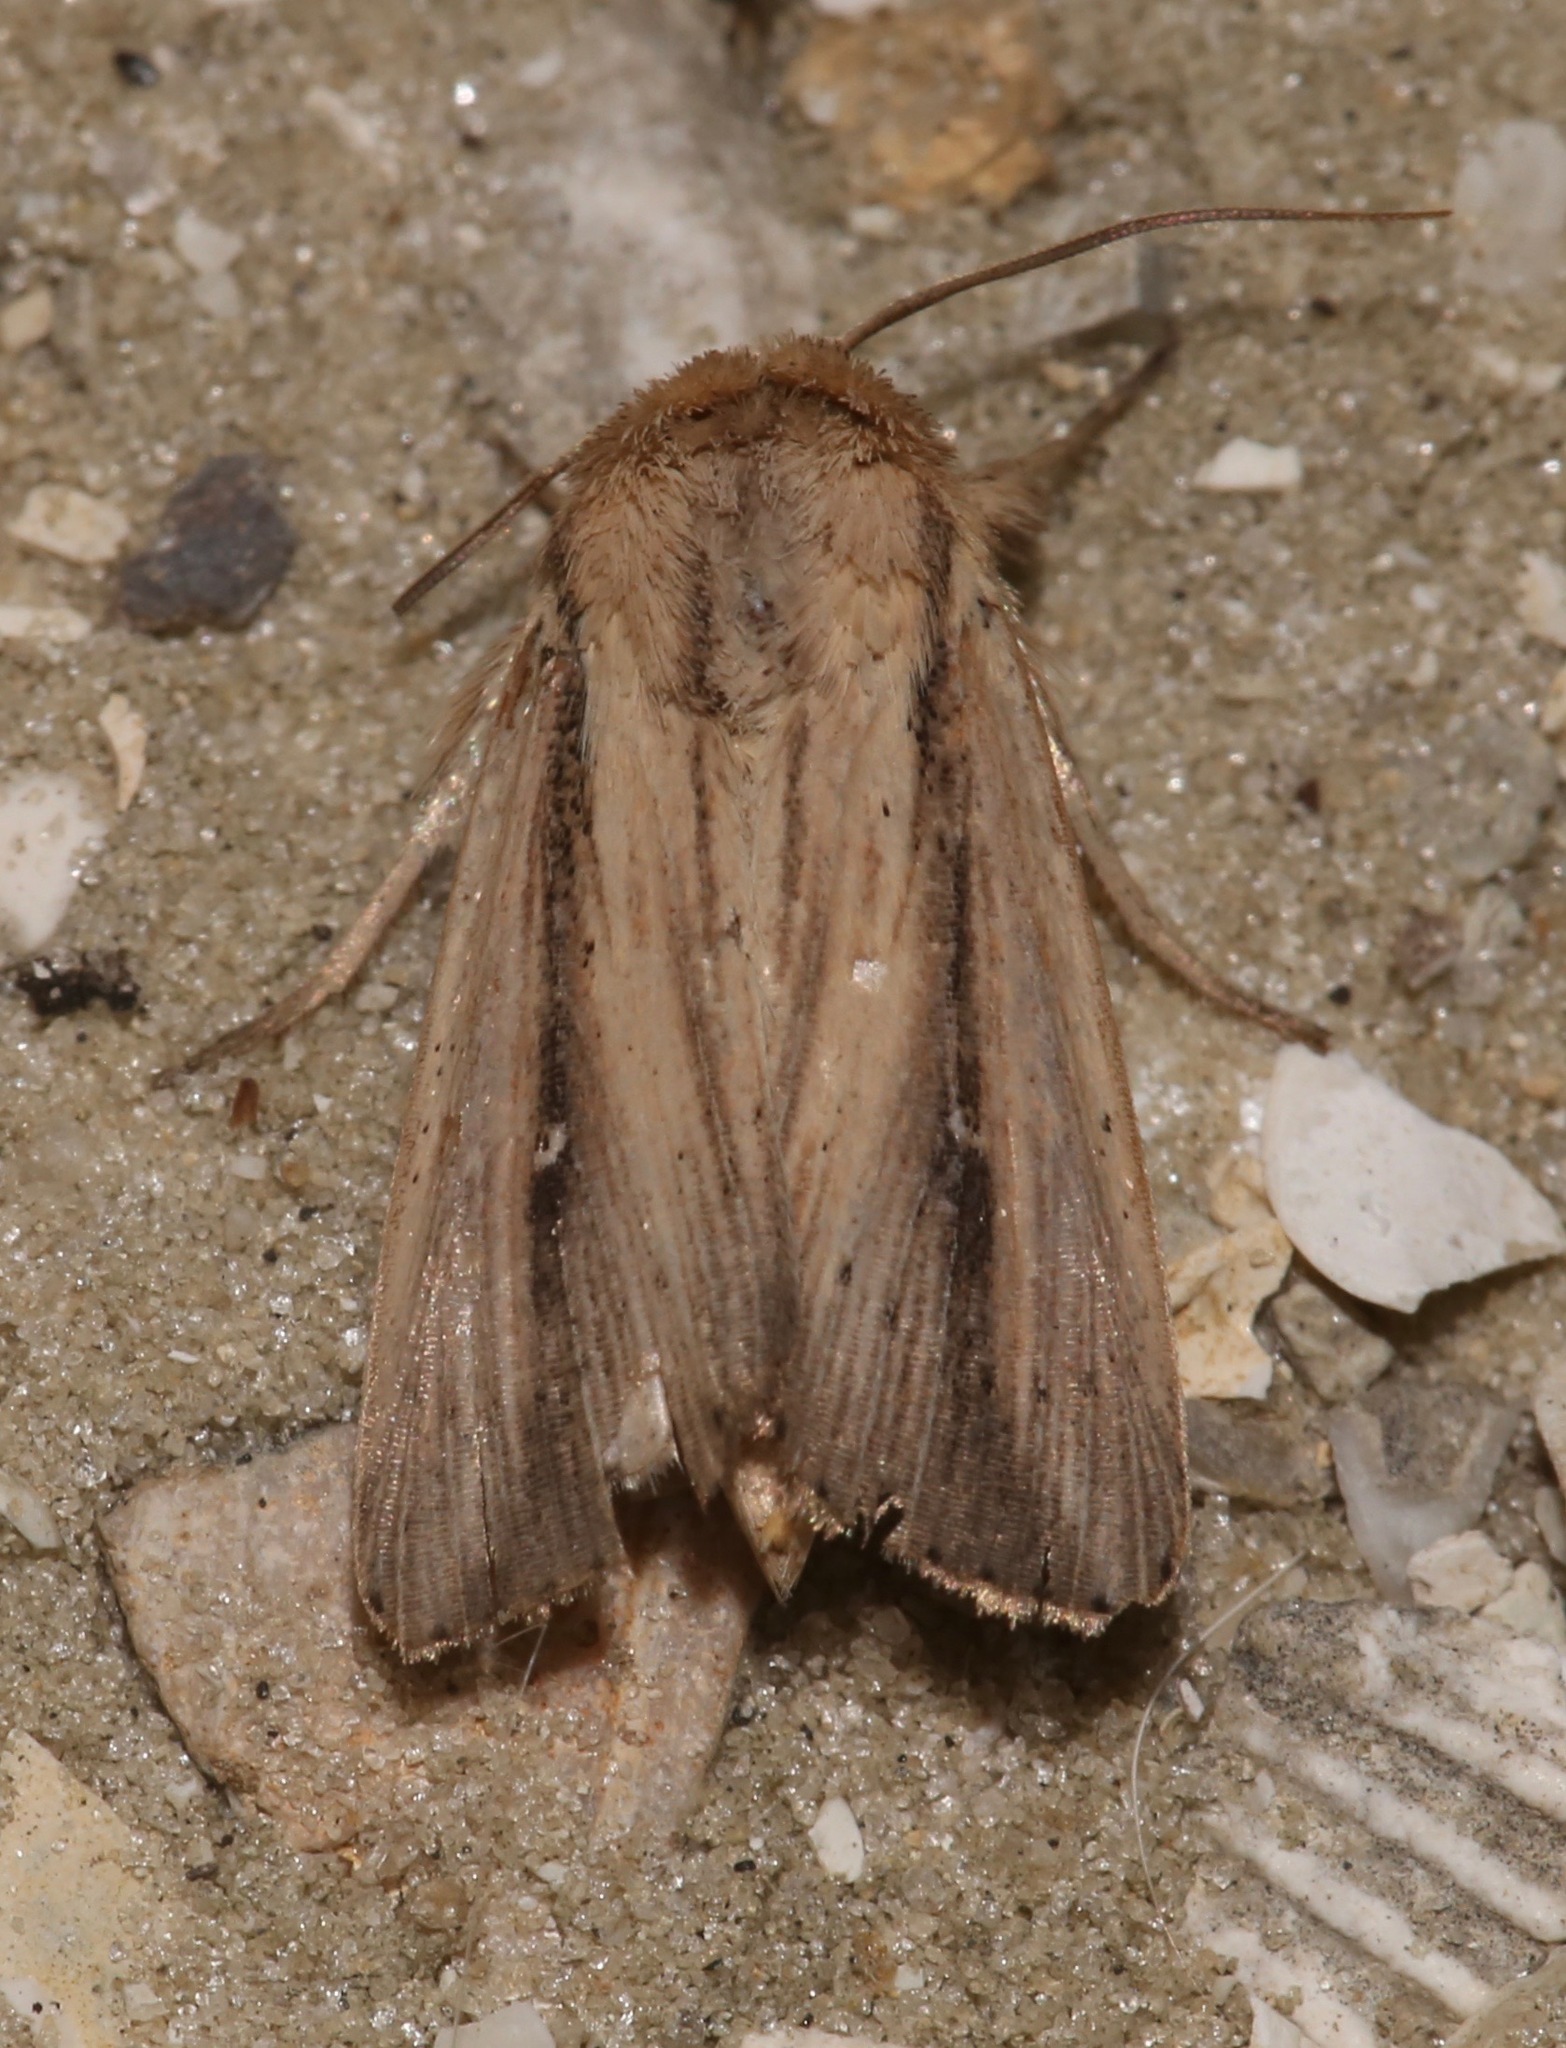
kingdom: Animalia
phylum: Arthropoda
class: Insecta
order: Lepidoptera
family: Noctuidae
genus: Leucania
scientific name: Leucania incognita
